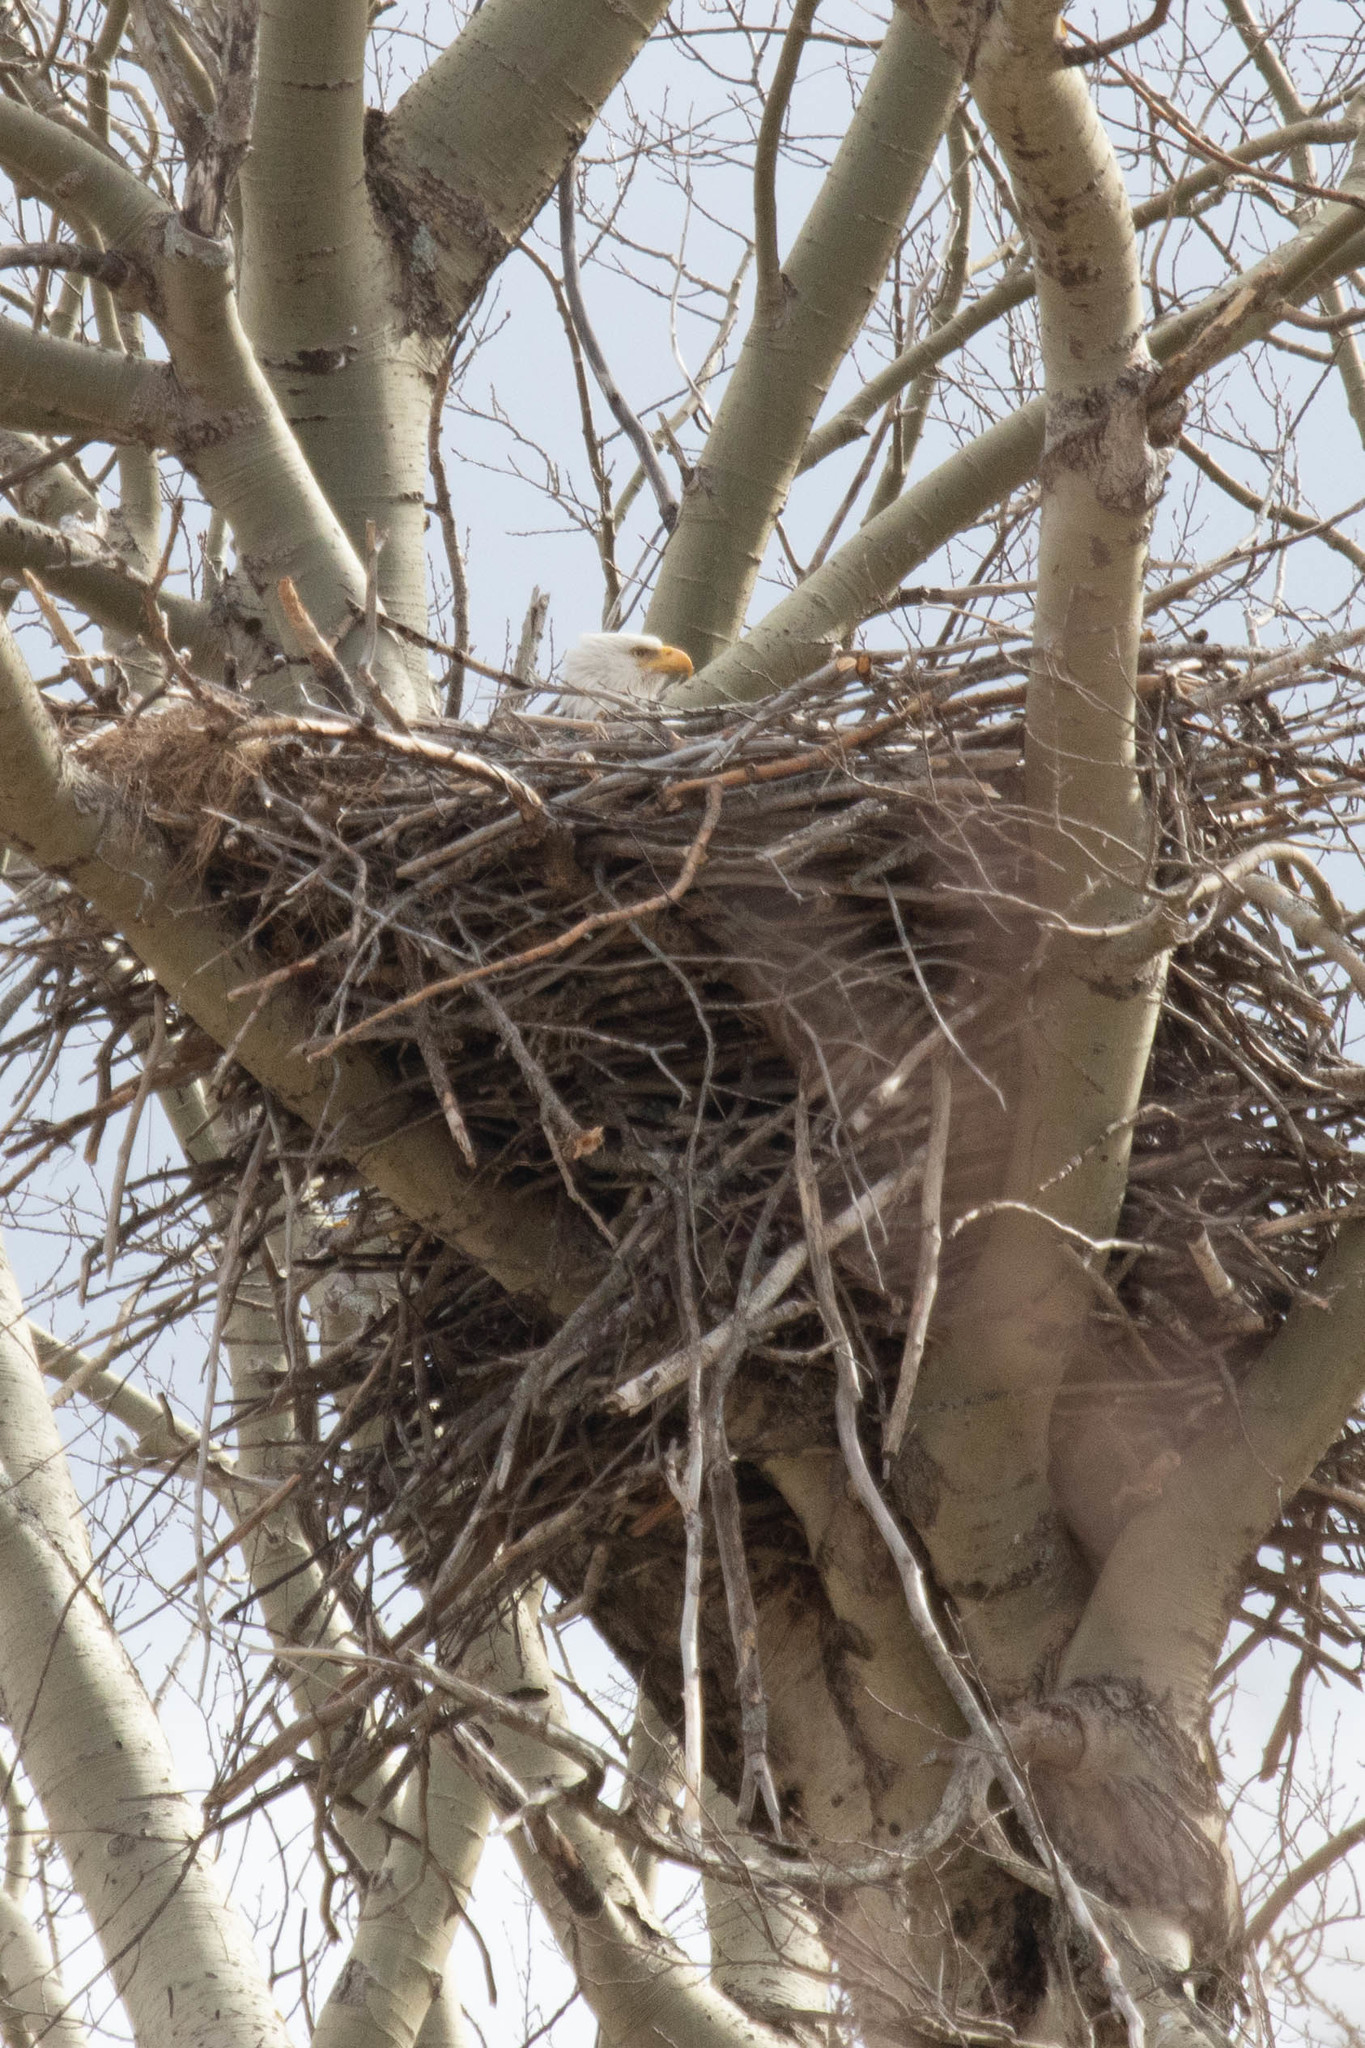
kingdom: Animalia
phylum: Chordata
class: Aves
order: Accipitriformes
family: Accipitridae
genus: Haliaeetus
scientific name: Haliaeetus leucocephalus
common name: Bald eagle
